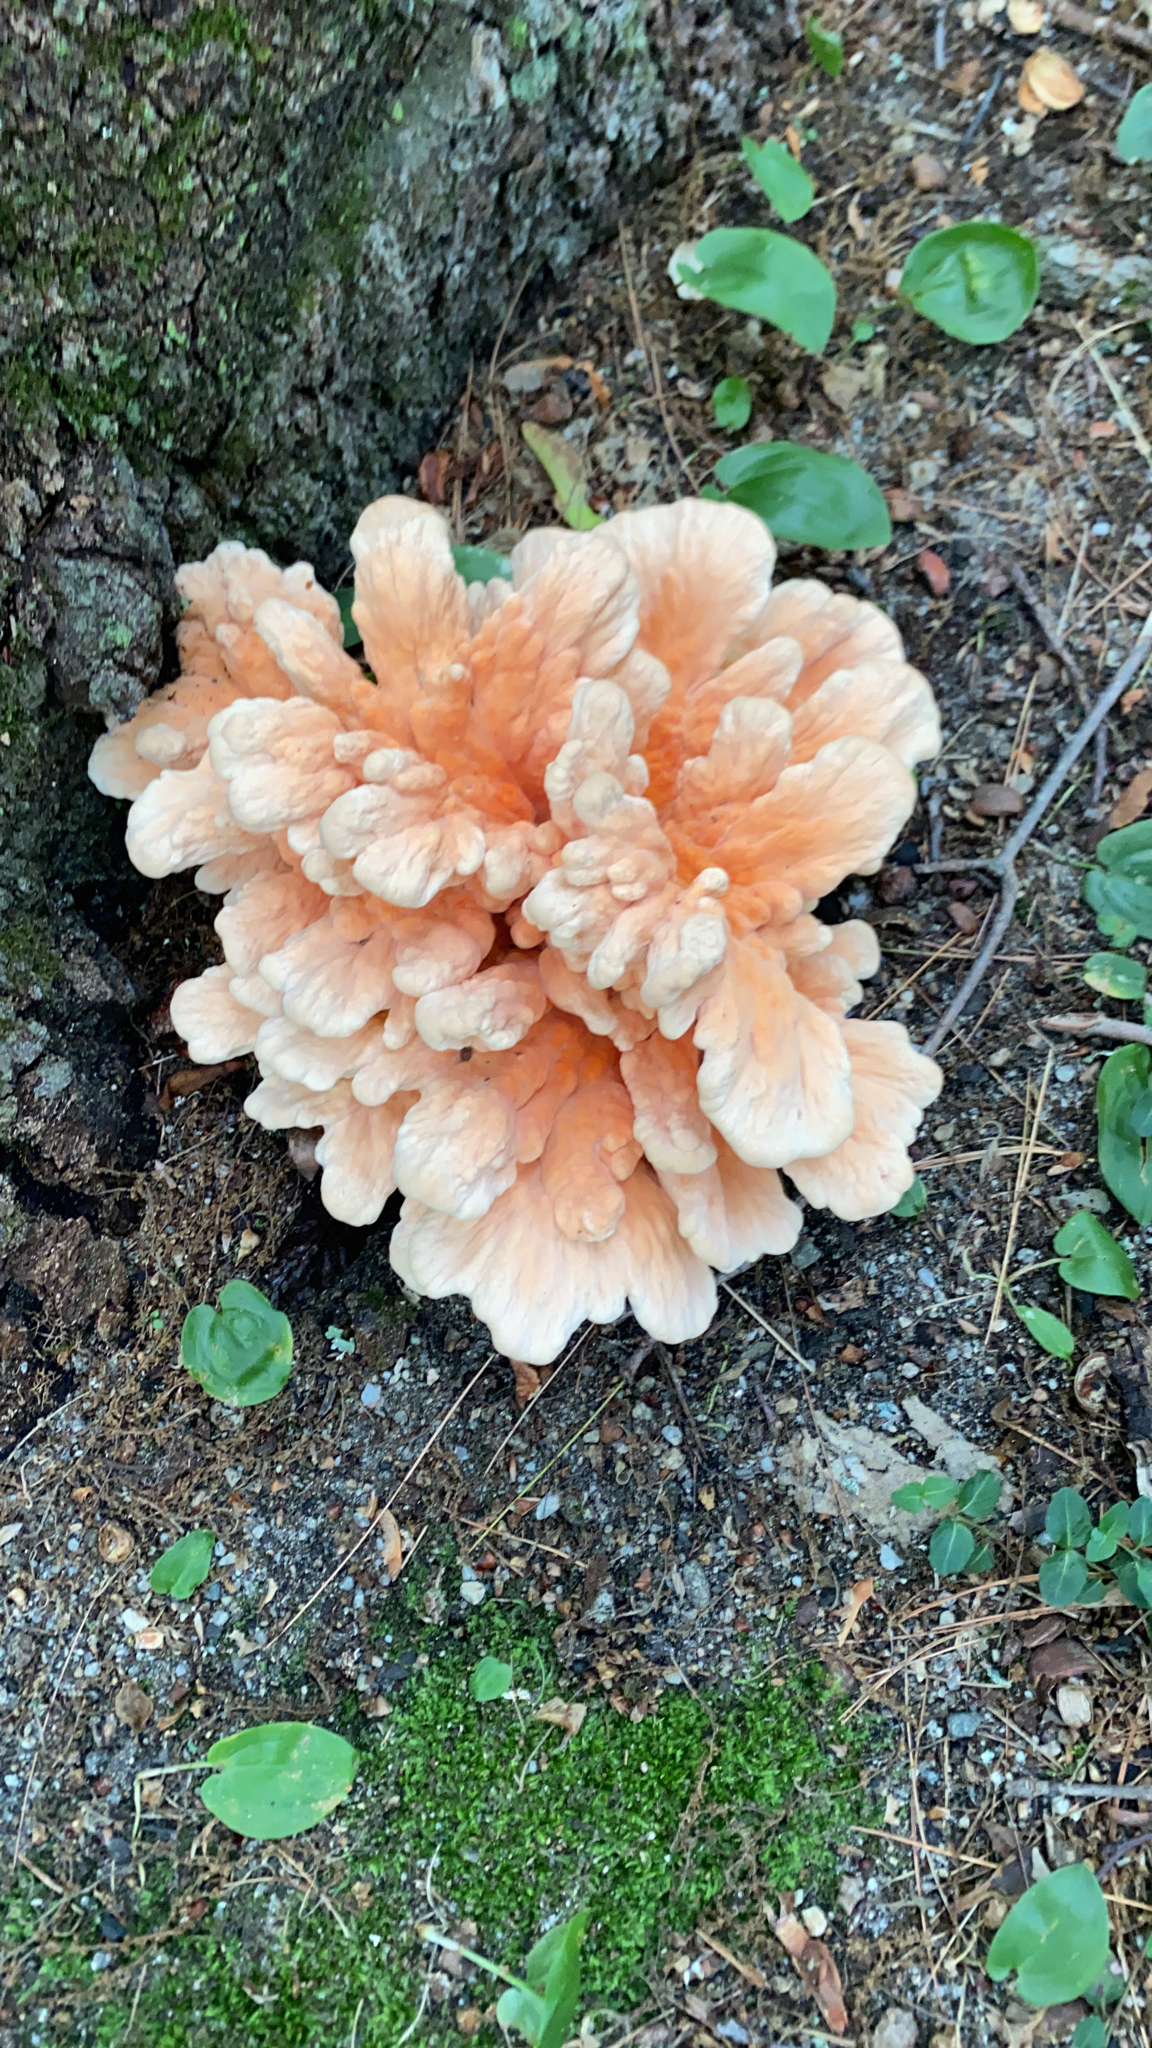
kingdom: Fungi
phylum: Basidiomycota
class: Agaricomycetes
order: Polyporales
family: Laetiporaceae
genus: Laetiporus
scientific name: Laetiporus sulphureus
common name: Chicken of the woods
